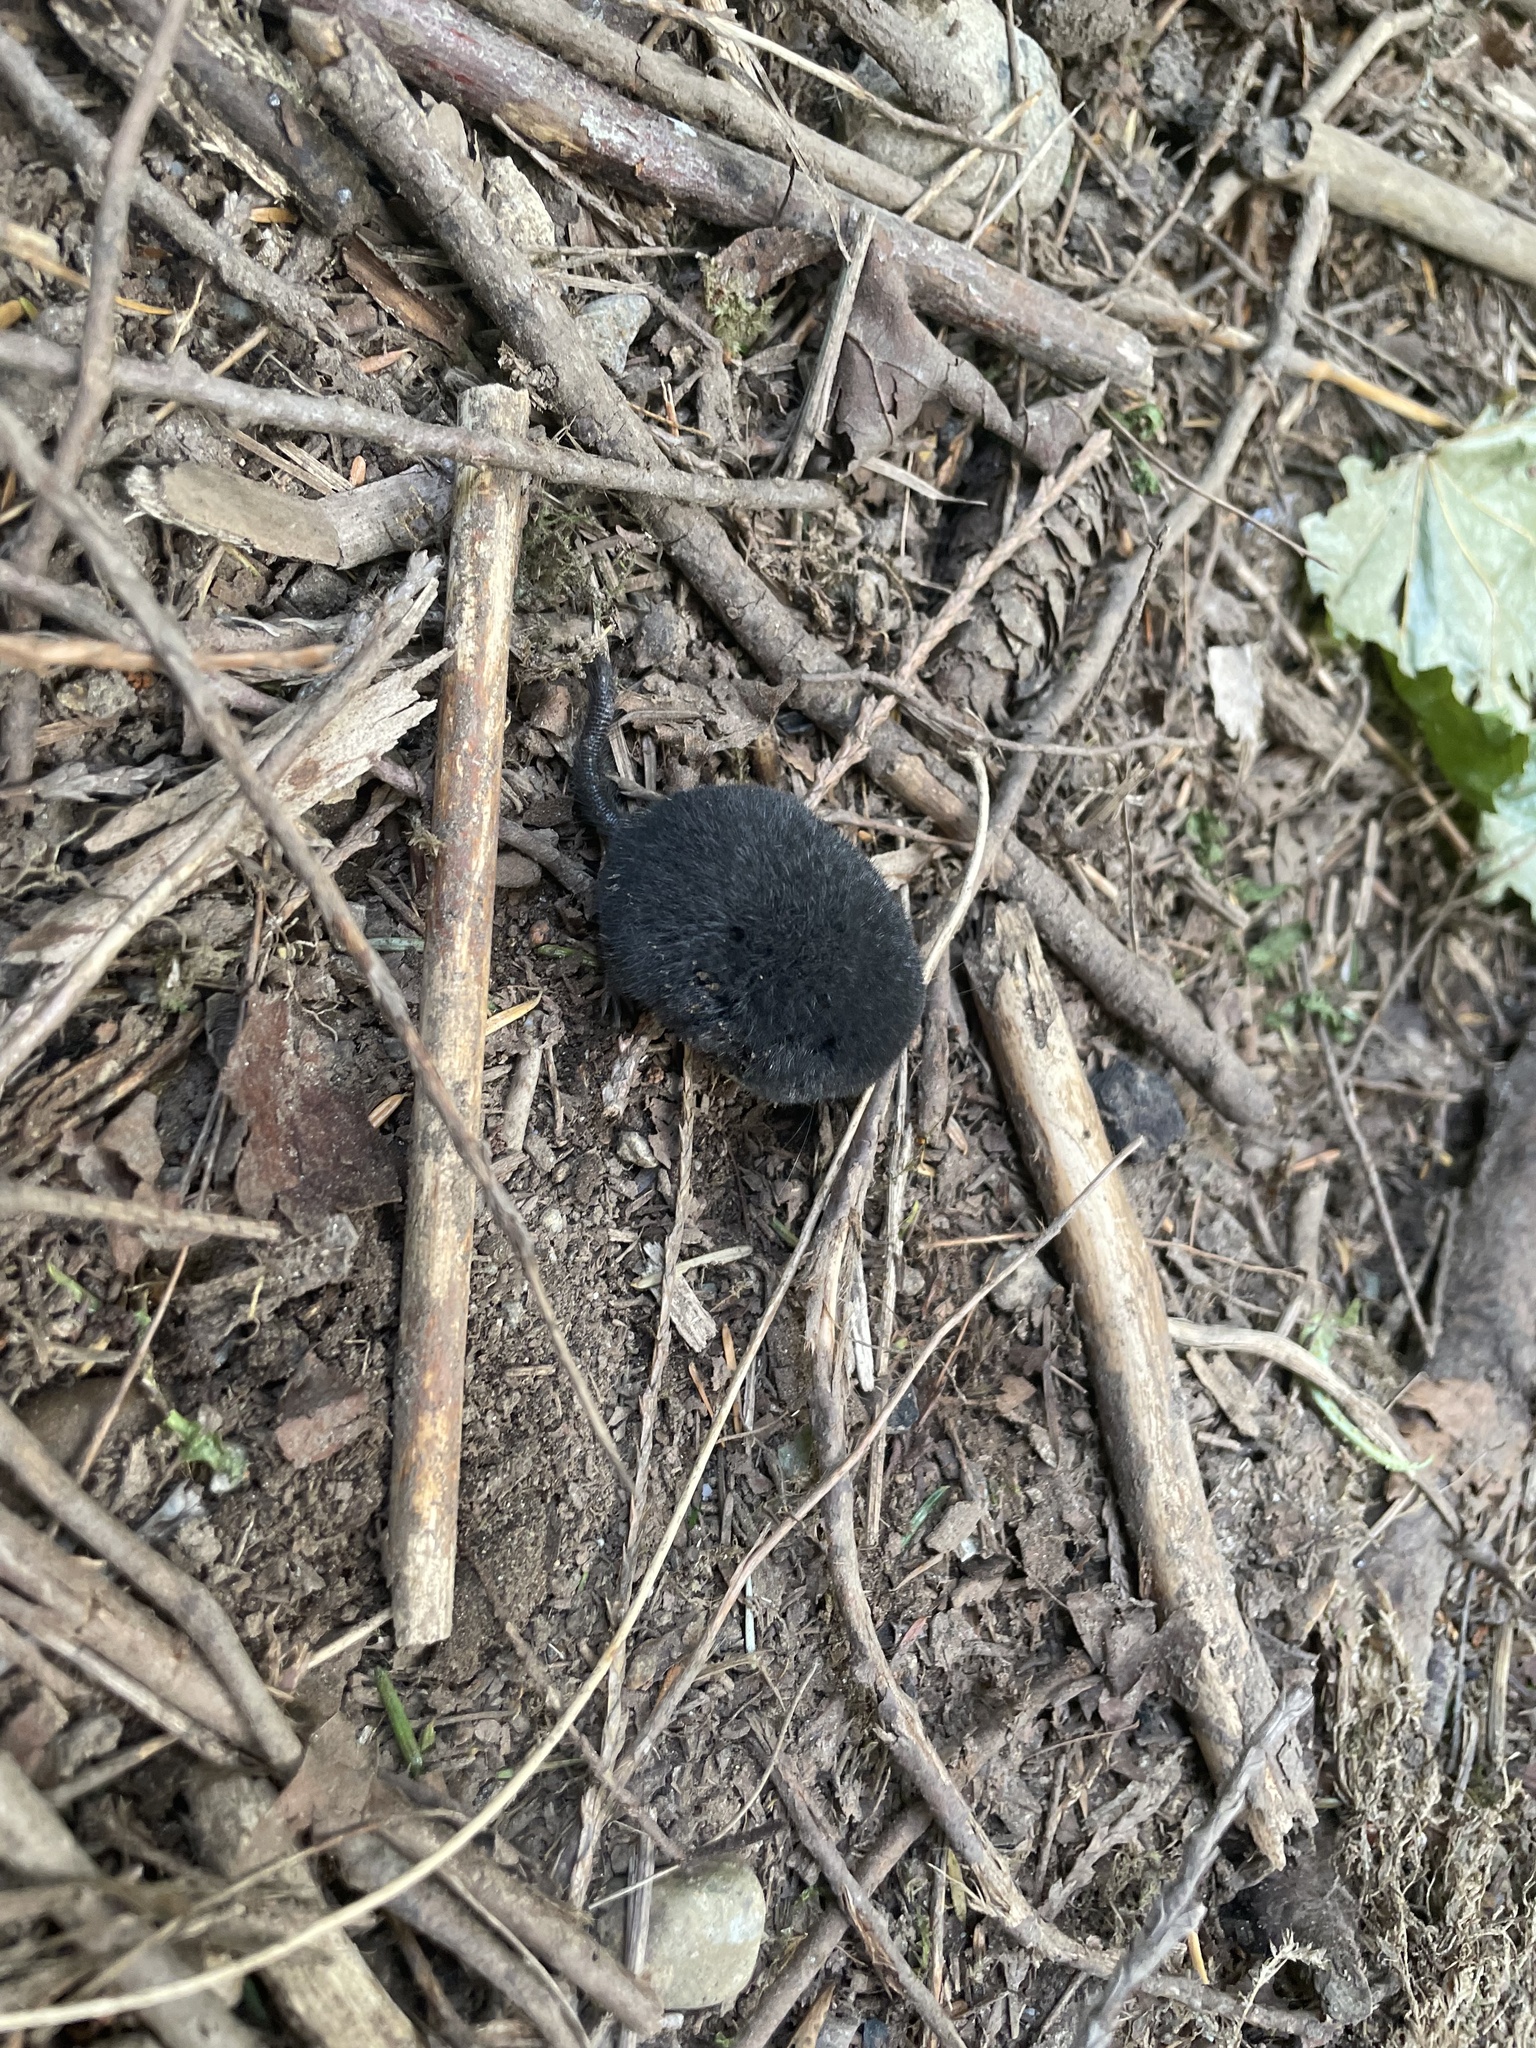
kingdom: Animalia
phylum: Chordata
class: Mammalia
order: Soricomorpha
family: Talpidae
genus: Neurotrichus
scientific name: Neurotrichus gibbsii
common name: American shrew mole
